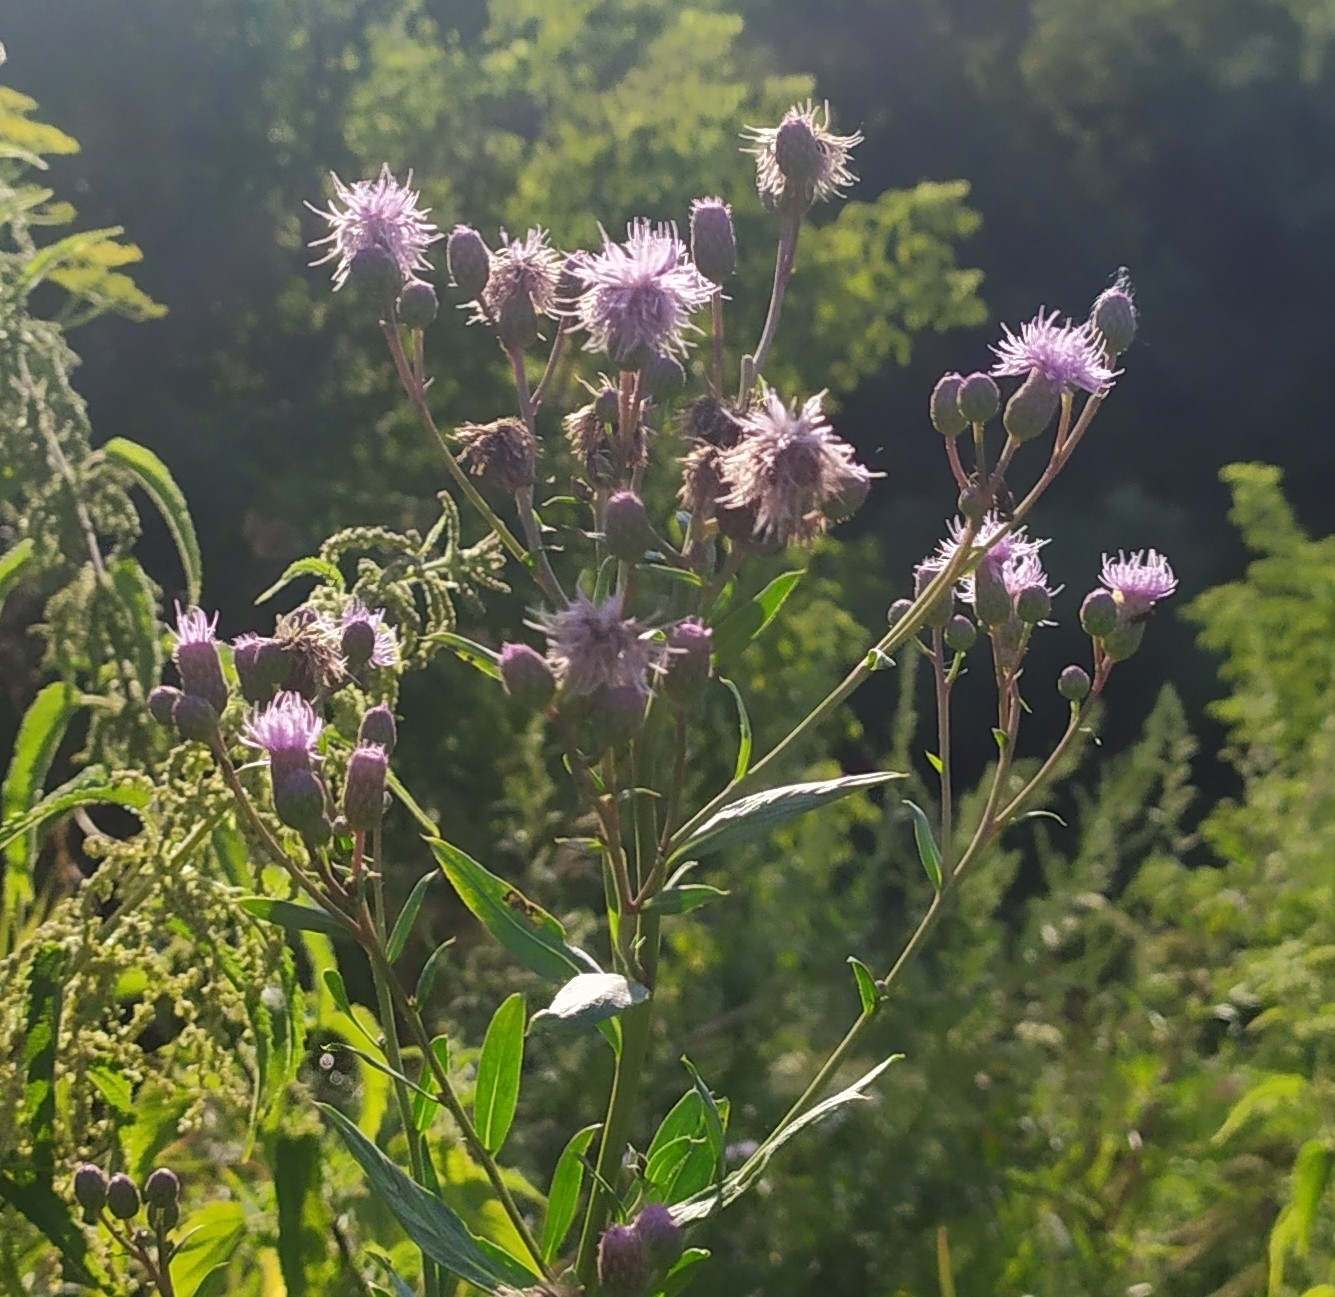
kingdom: Plantae
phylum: Tracheophyta
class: Magnoliopsida
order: Asterales
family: Asteraceae
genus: Cirsium
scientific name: Cirsium arvense
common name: Creeping thistle
